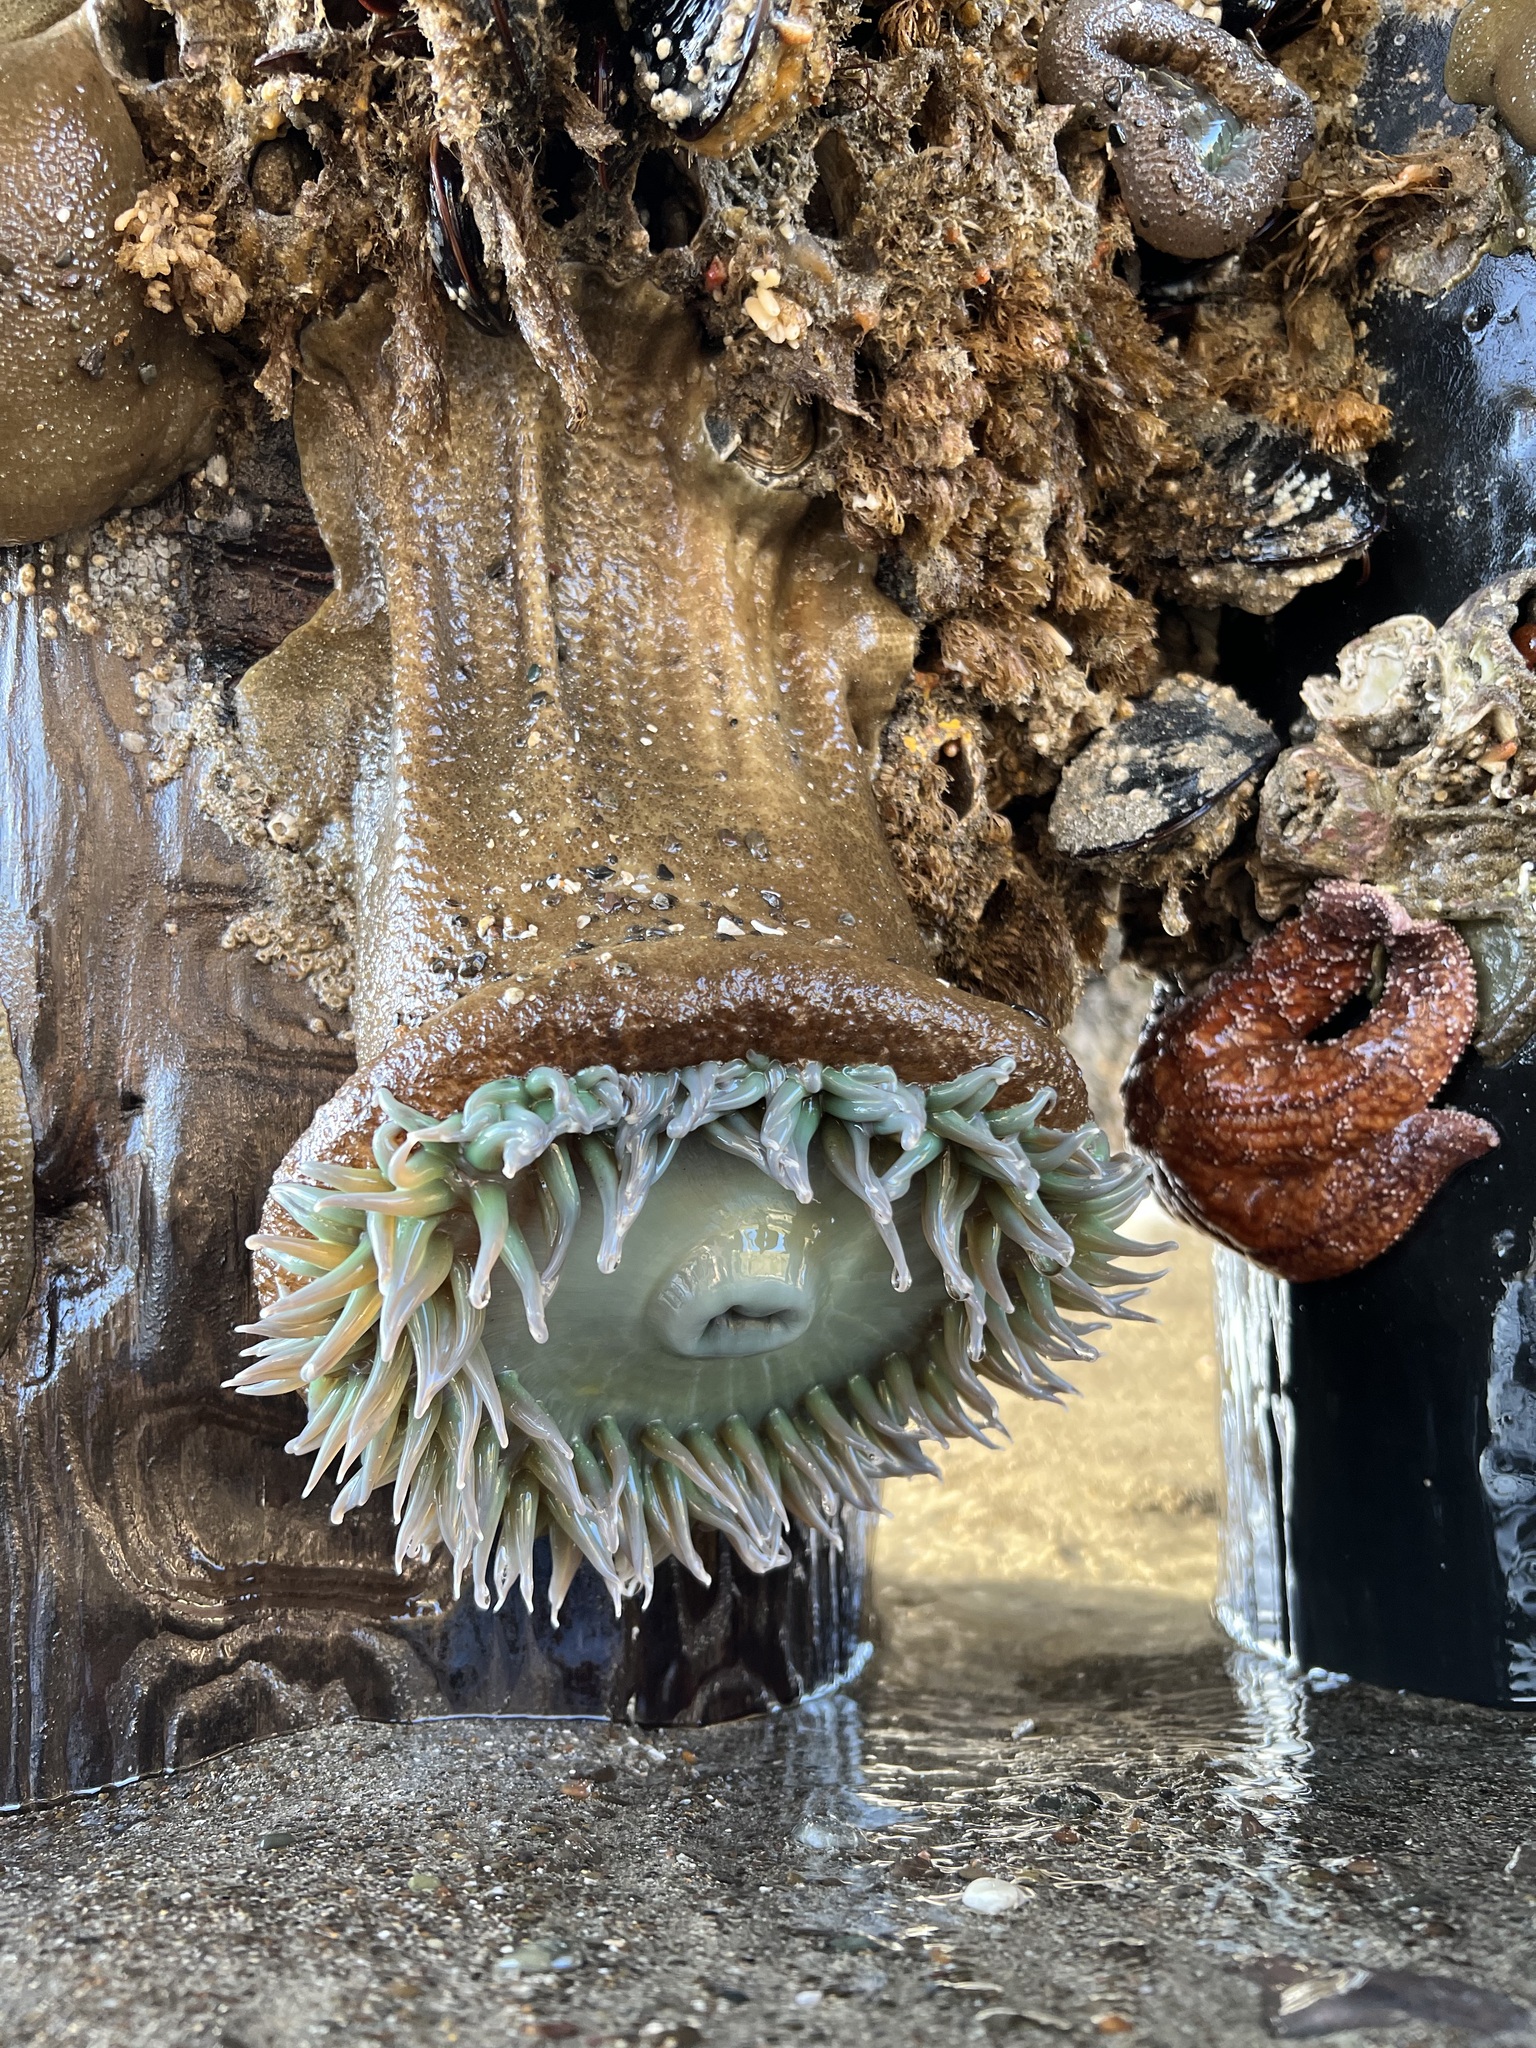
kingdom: Animalia
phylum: Cnidaria
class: Anthozoa
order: Actiniaria
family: Actiniidae
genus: Anthopleura
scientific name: Anthopleura xanthogrammica
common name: Giant green anemone
